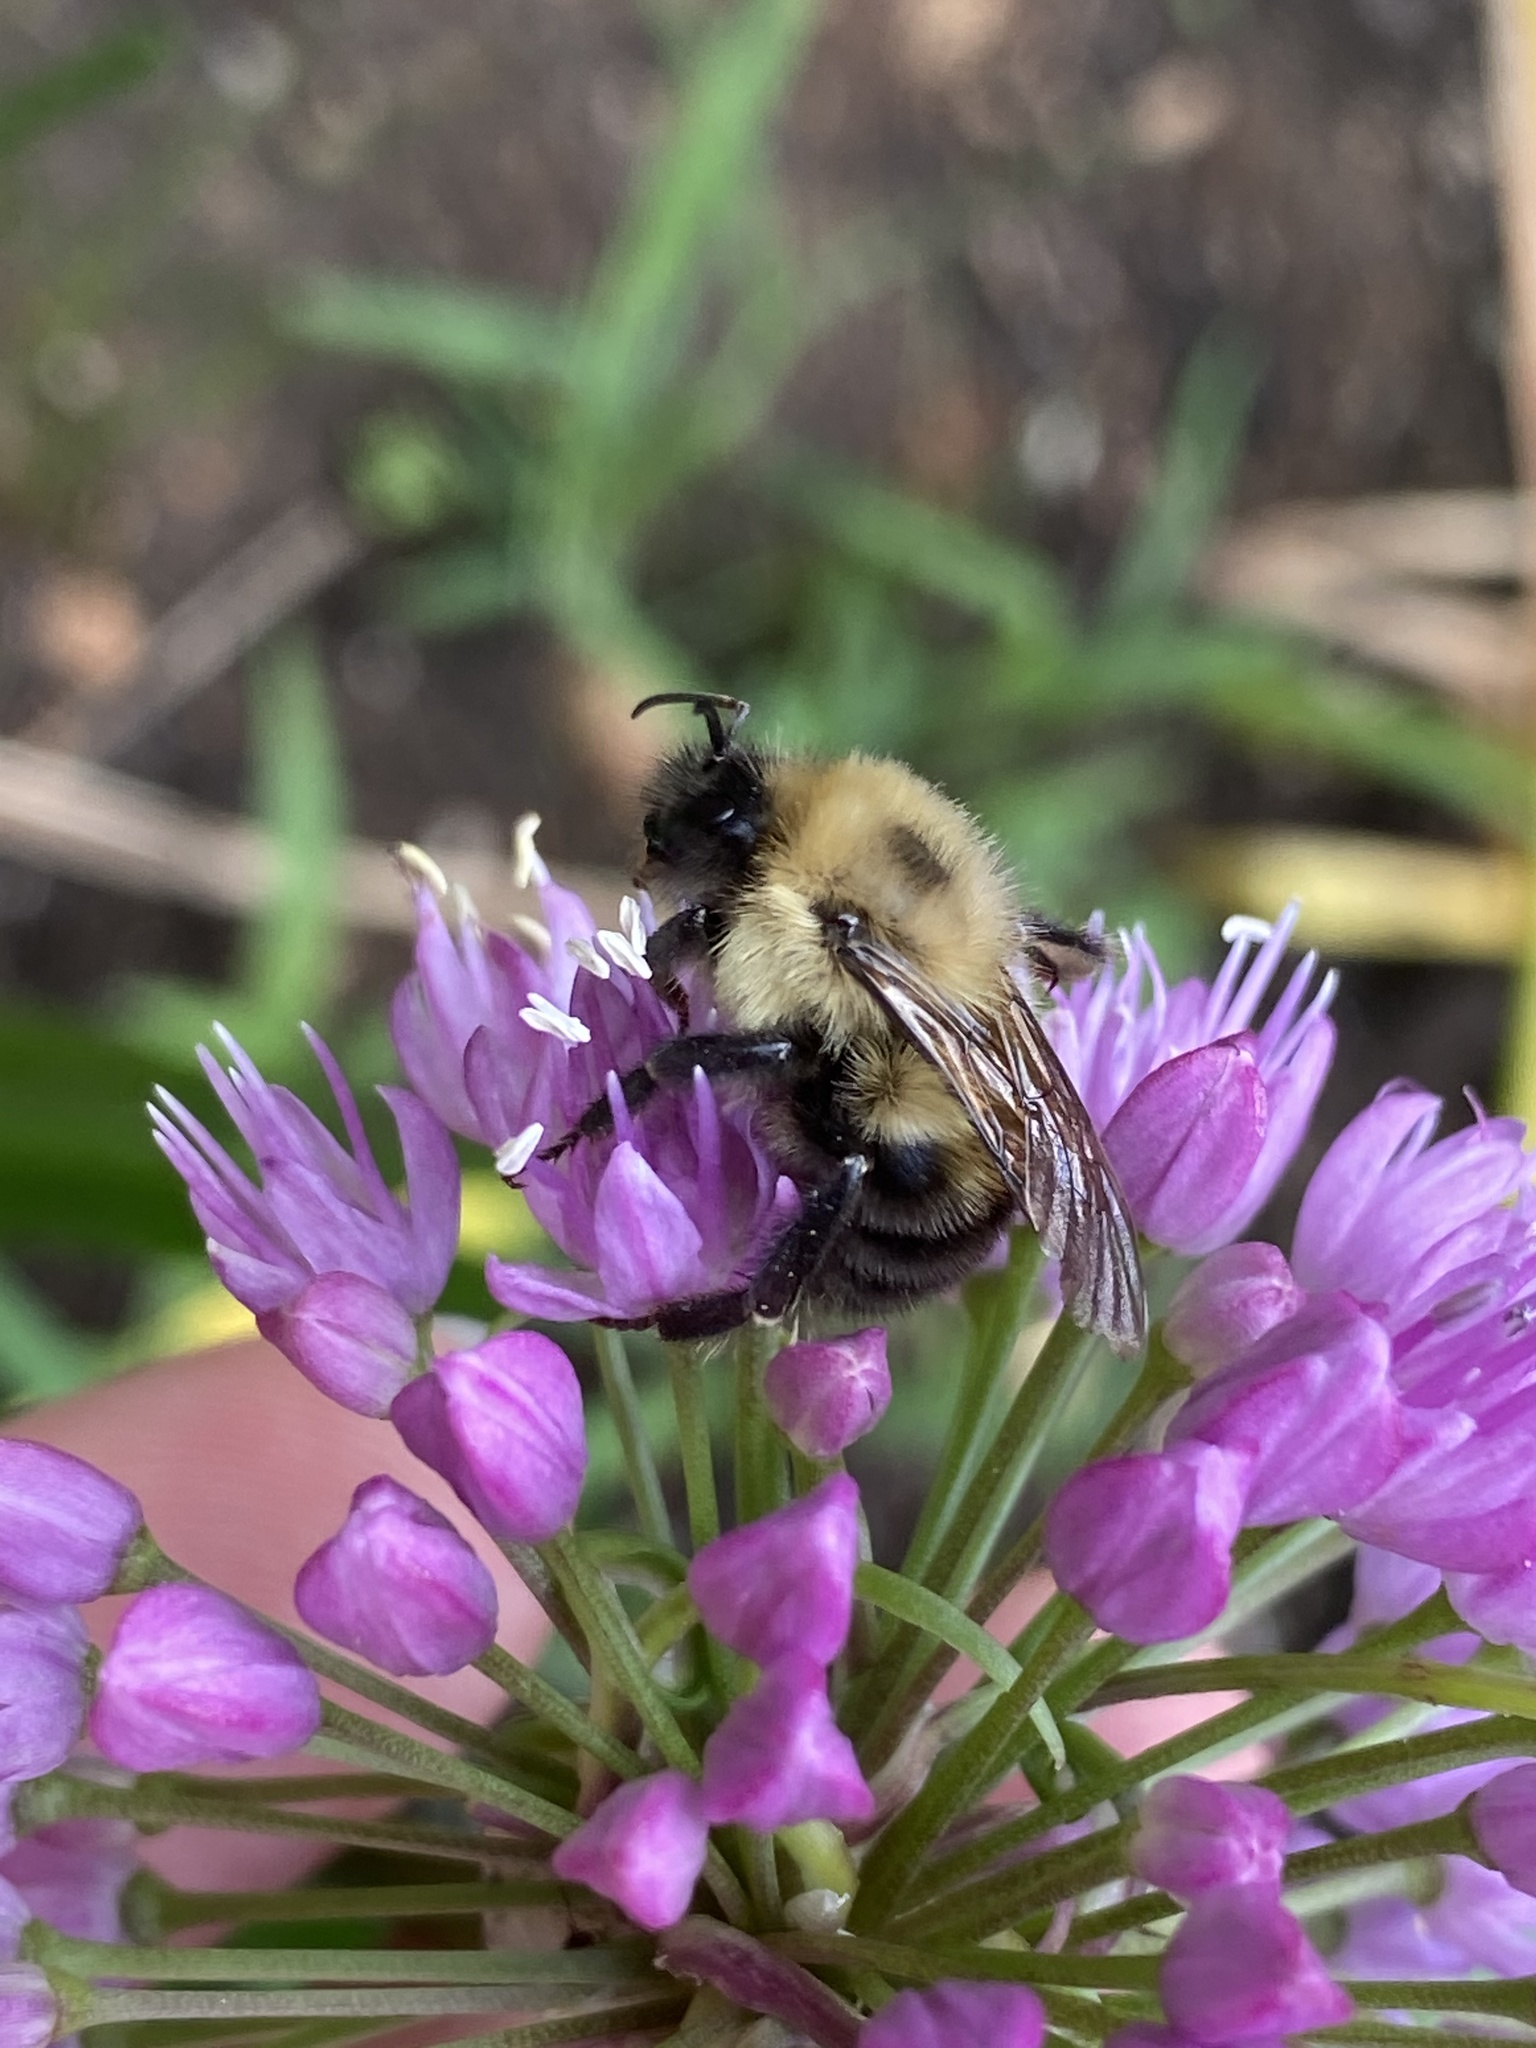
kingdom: Animalia
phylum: Arthropoda
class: Insecta
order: Hymenoptera
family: Apidae
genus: Bombus
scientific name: Bombus bimaculatus
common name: Two-spotted bumble bee
